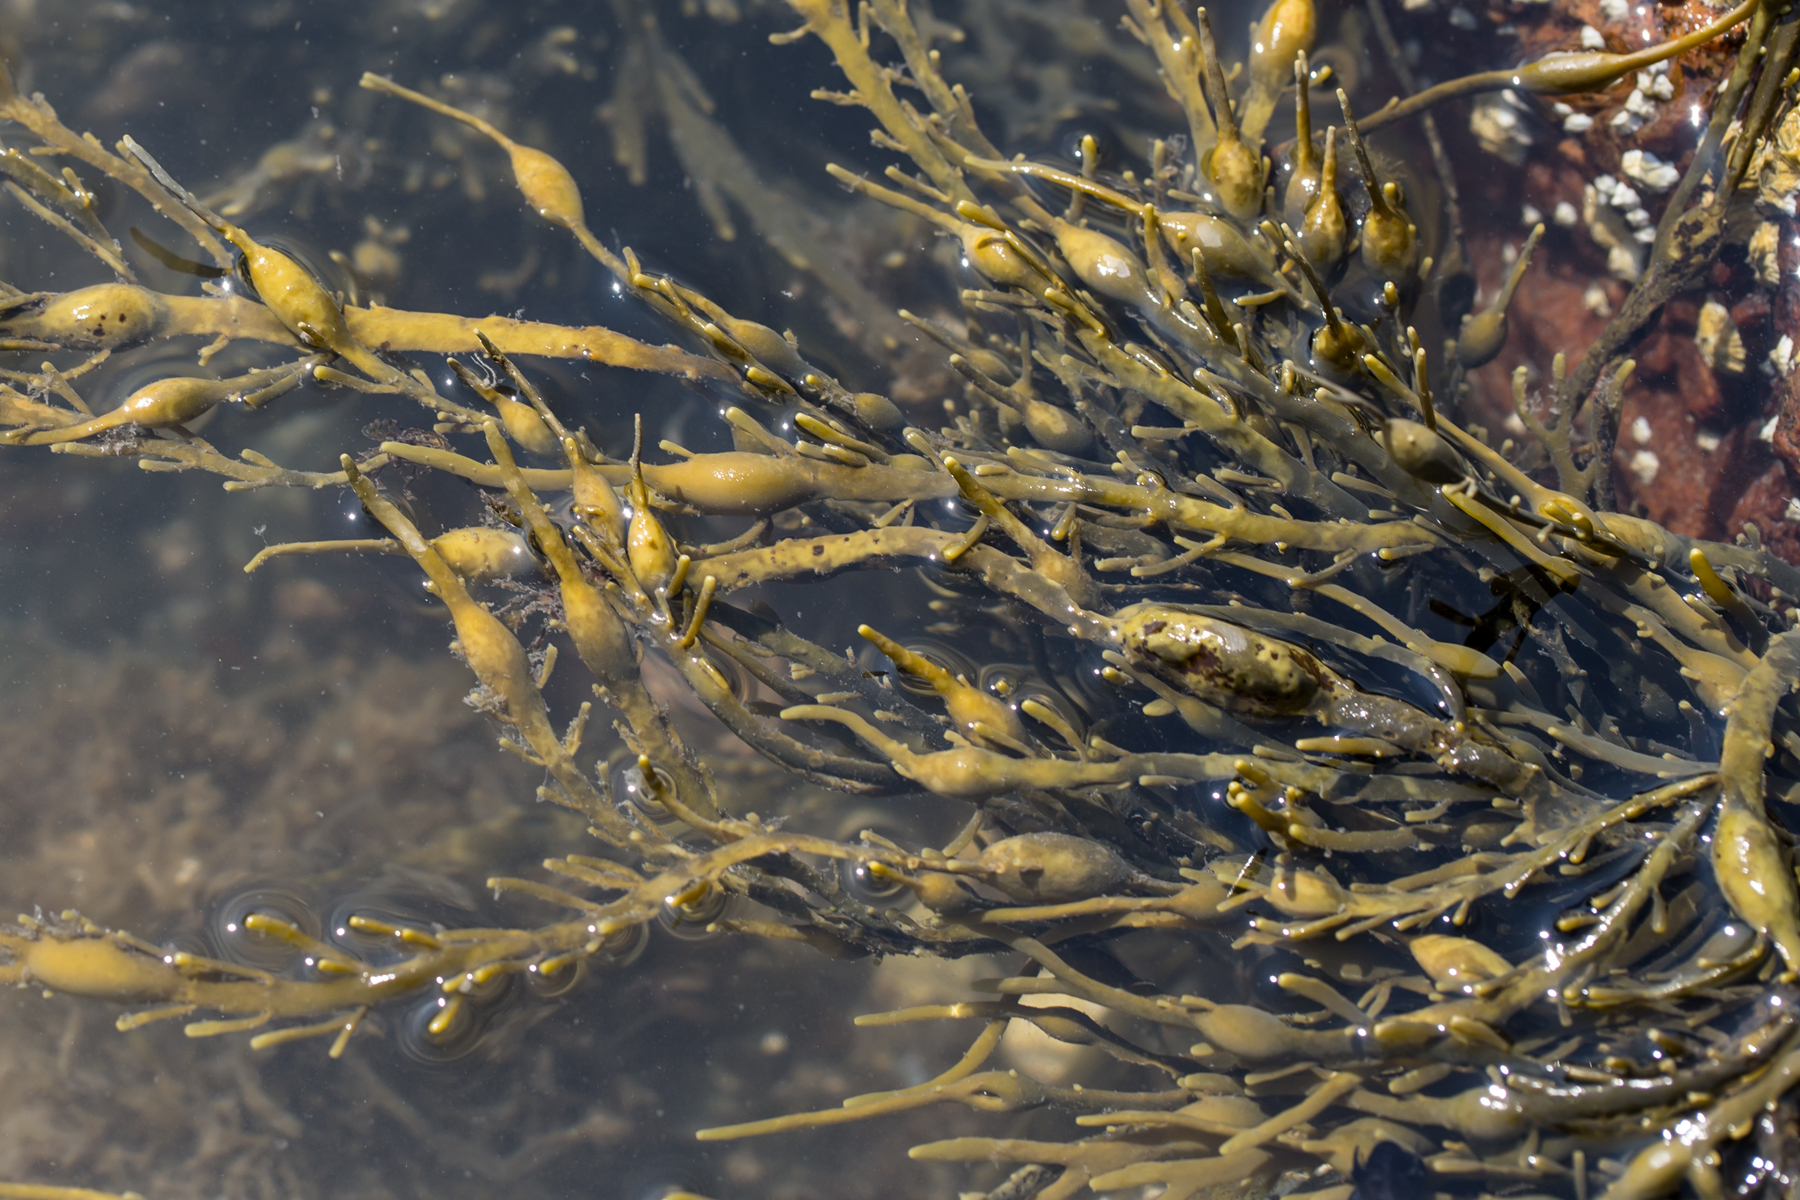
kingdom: Chromista
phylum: Ochrophyta
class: Phaeophyceae
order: Fucales
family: Fucaceae
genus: Ascophyllum
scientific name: Ascophyllum nodosum
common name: Knotted wrack
